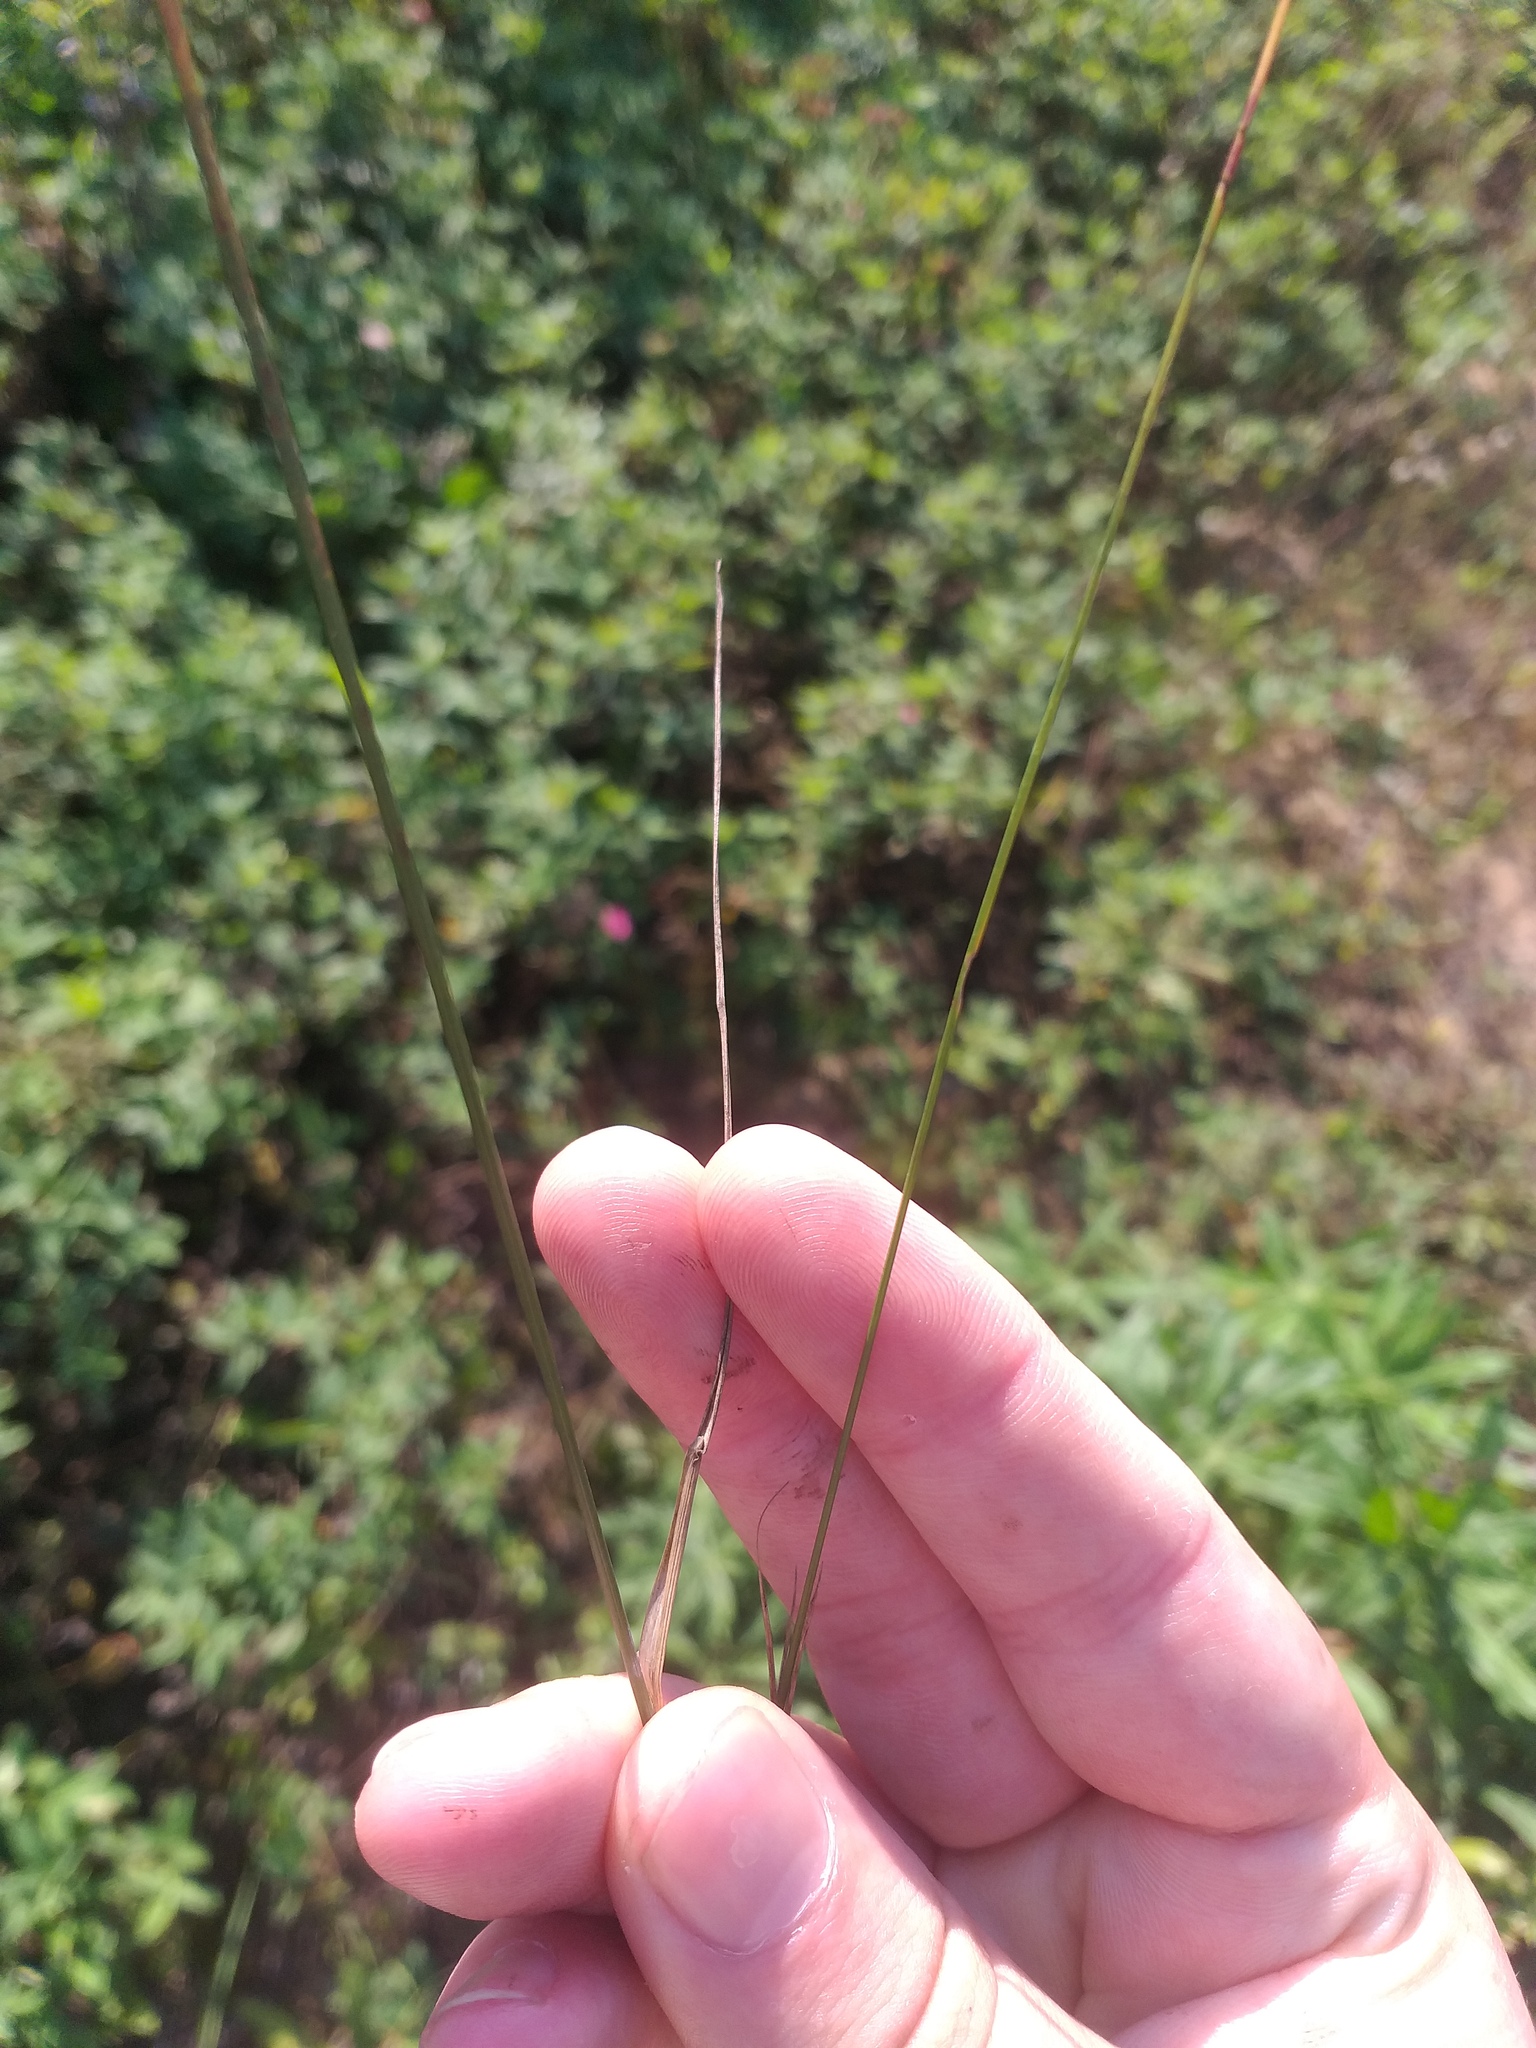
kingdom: Plantae
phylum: Tracheophyta
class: Liliopsida
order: Poales
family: Poaceae
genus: Poa
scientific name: Poa palustris
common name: Swamp meadow-grass
